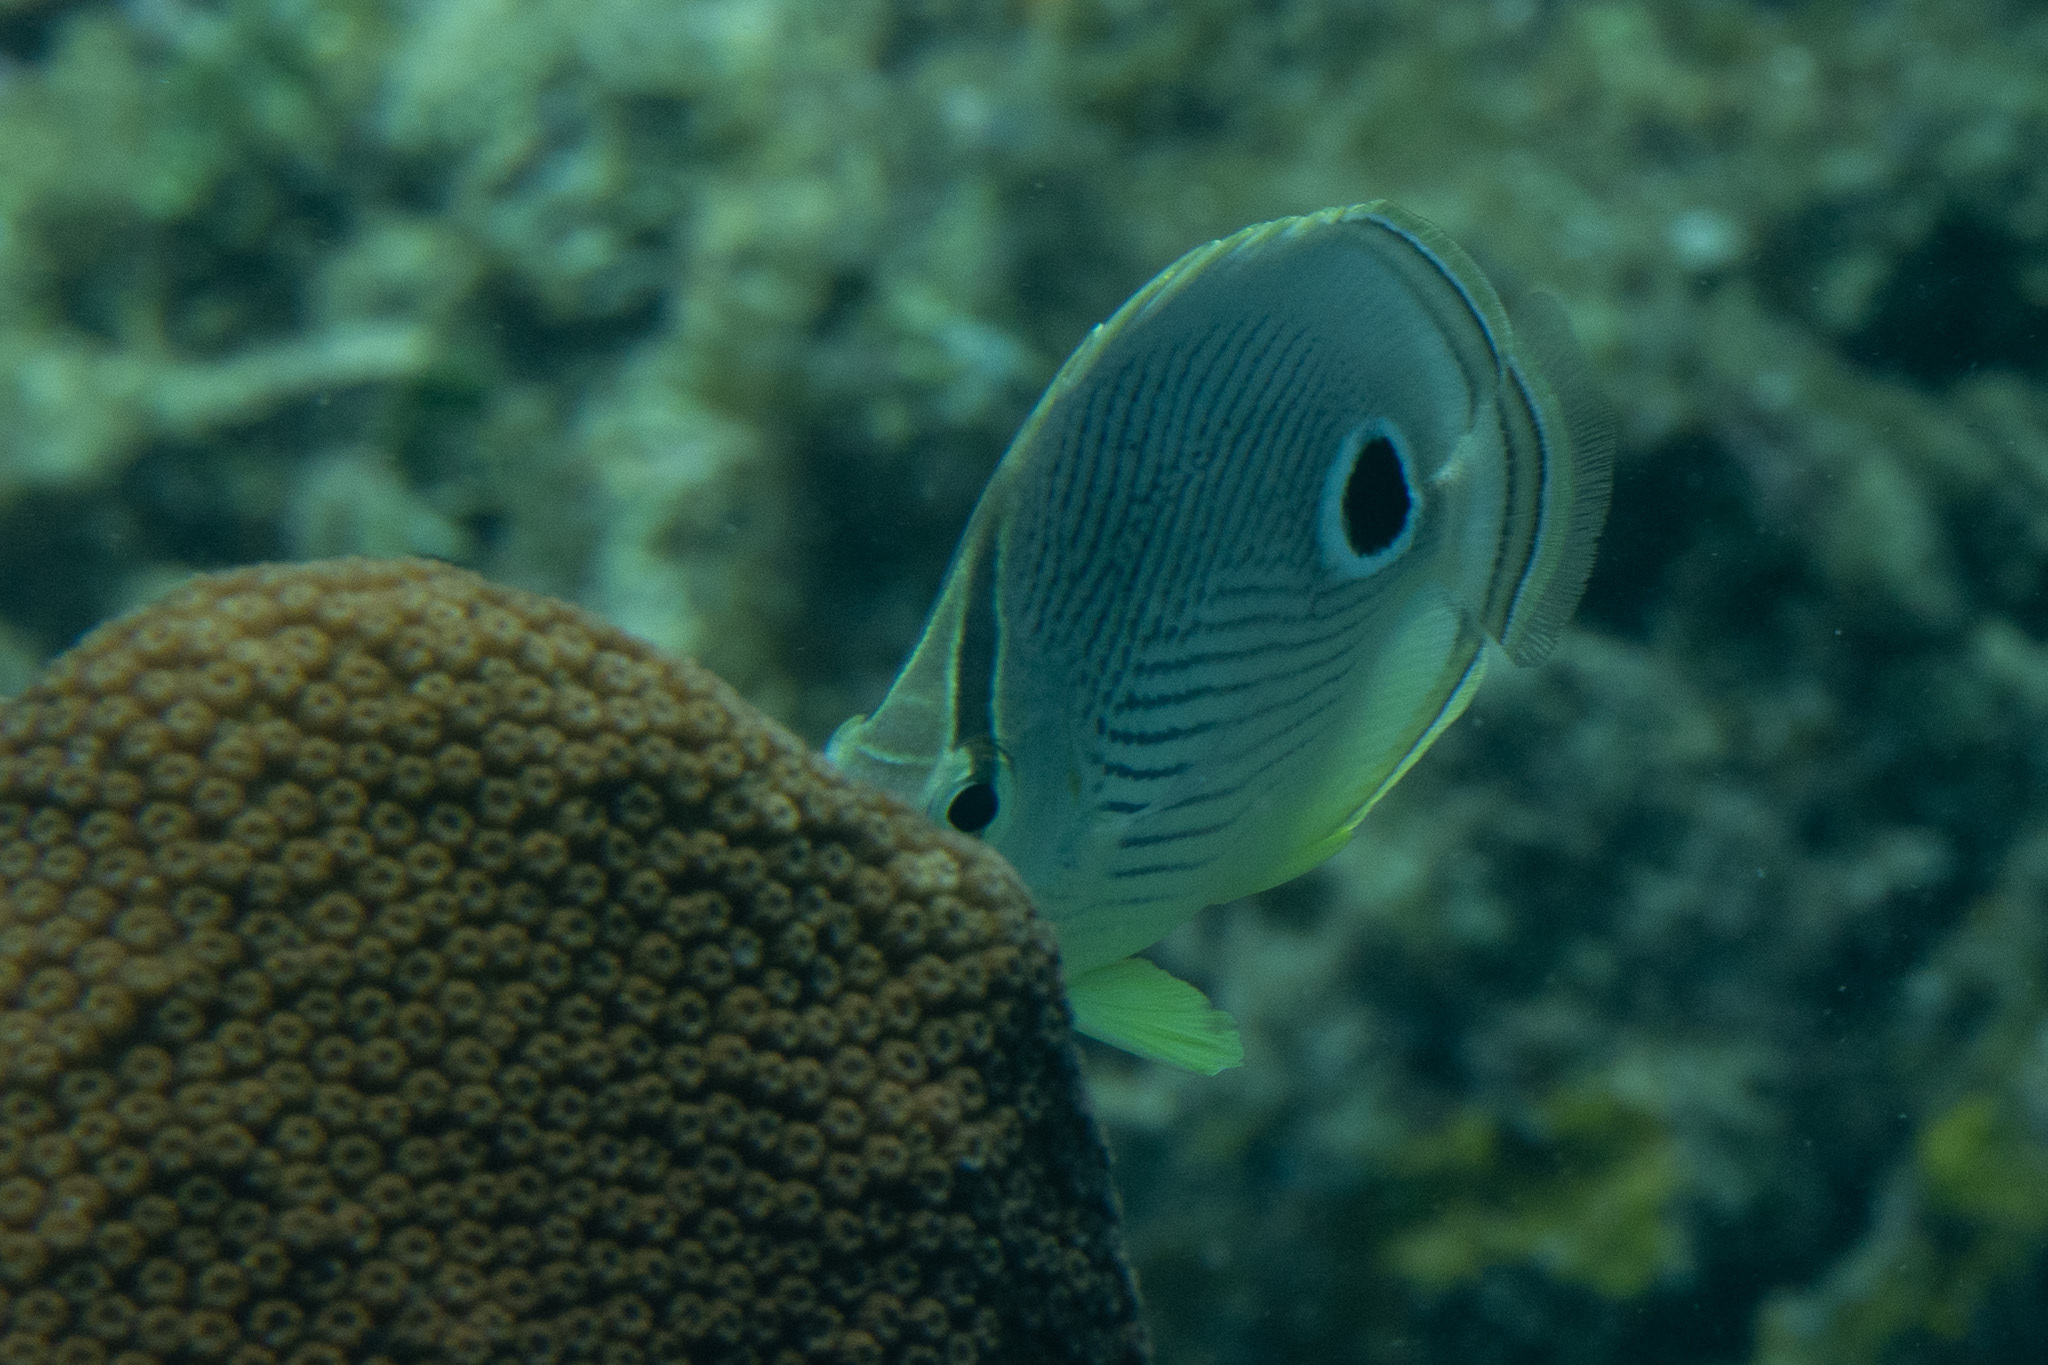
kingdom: Animalia
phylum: Chordata
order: Perciformes
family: Chaetodontidae
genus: Chaetodon
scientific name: Chaetodon capistratus
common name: Kete
